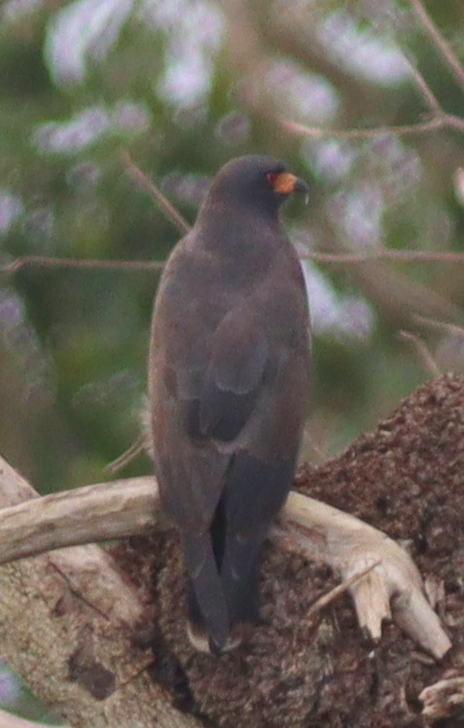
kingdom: Animalia
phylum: Chordata
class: Aves
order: Accipitriformes
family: Accipitridae
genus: Rostrhamus
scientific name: Rostrhamus sociabilis
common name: Snail kite
